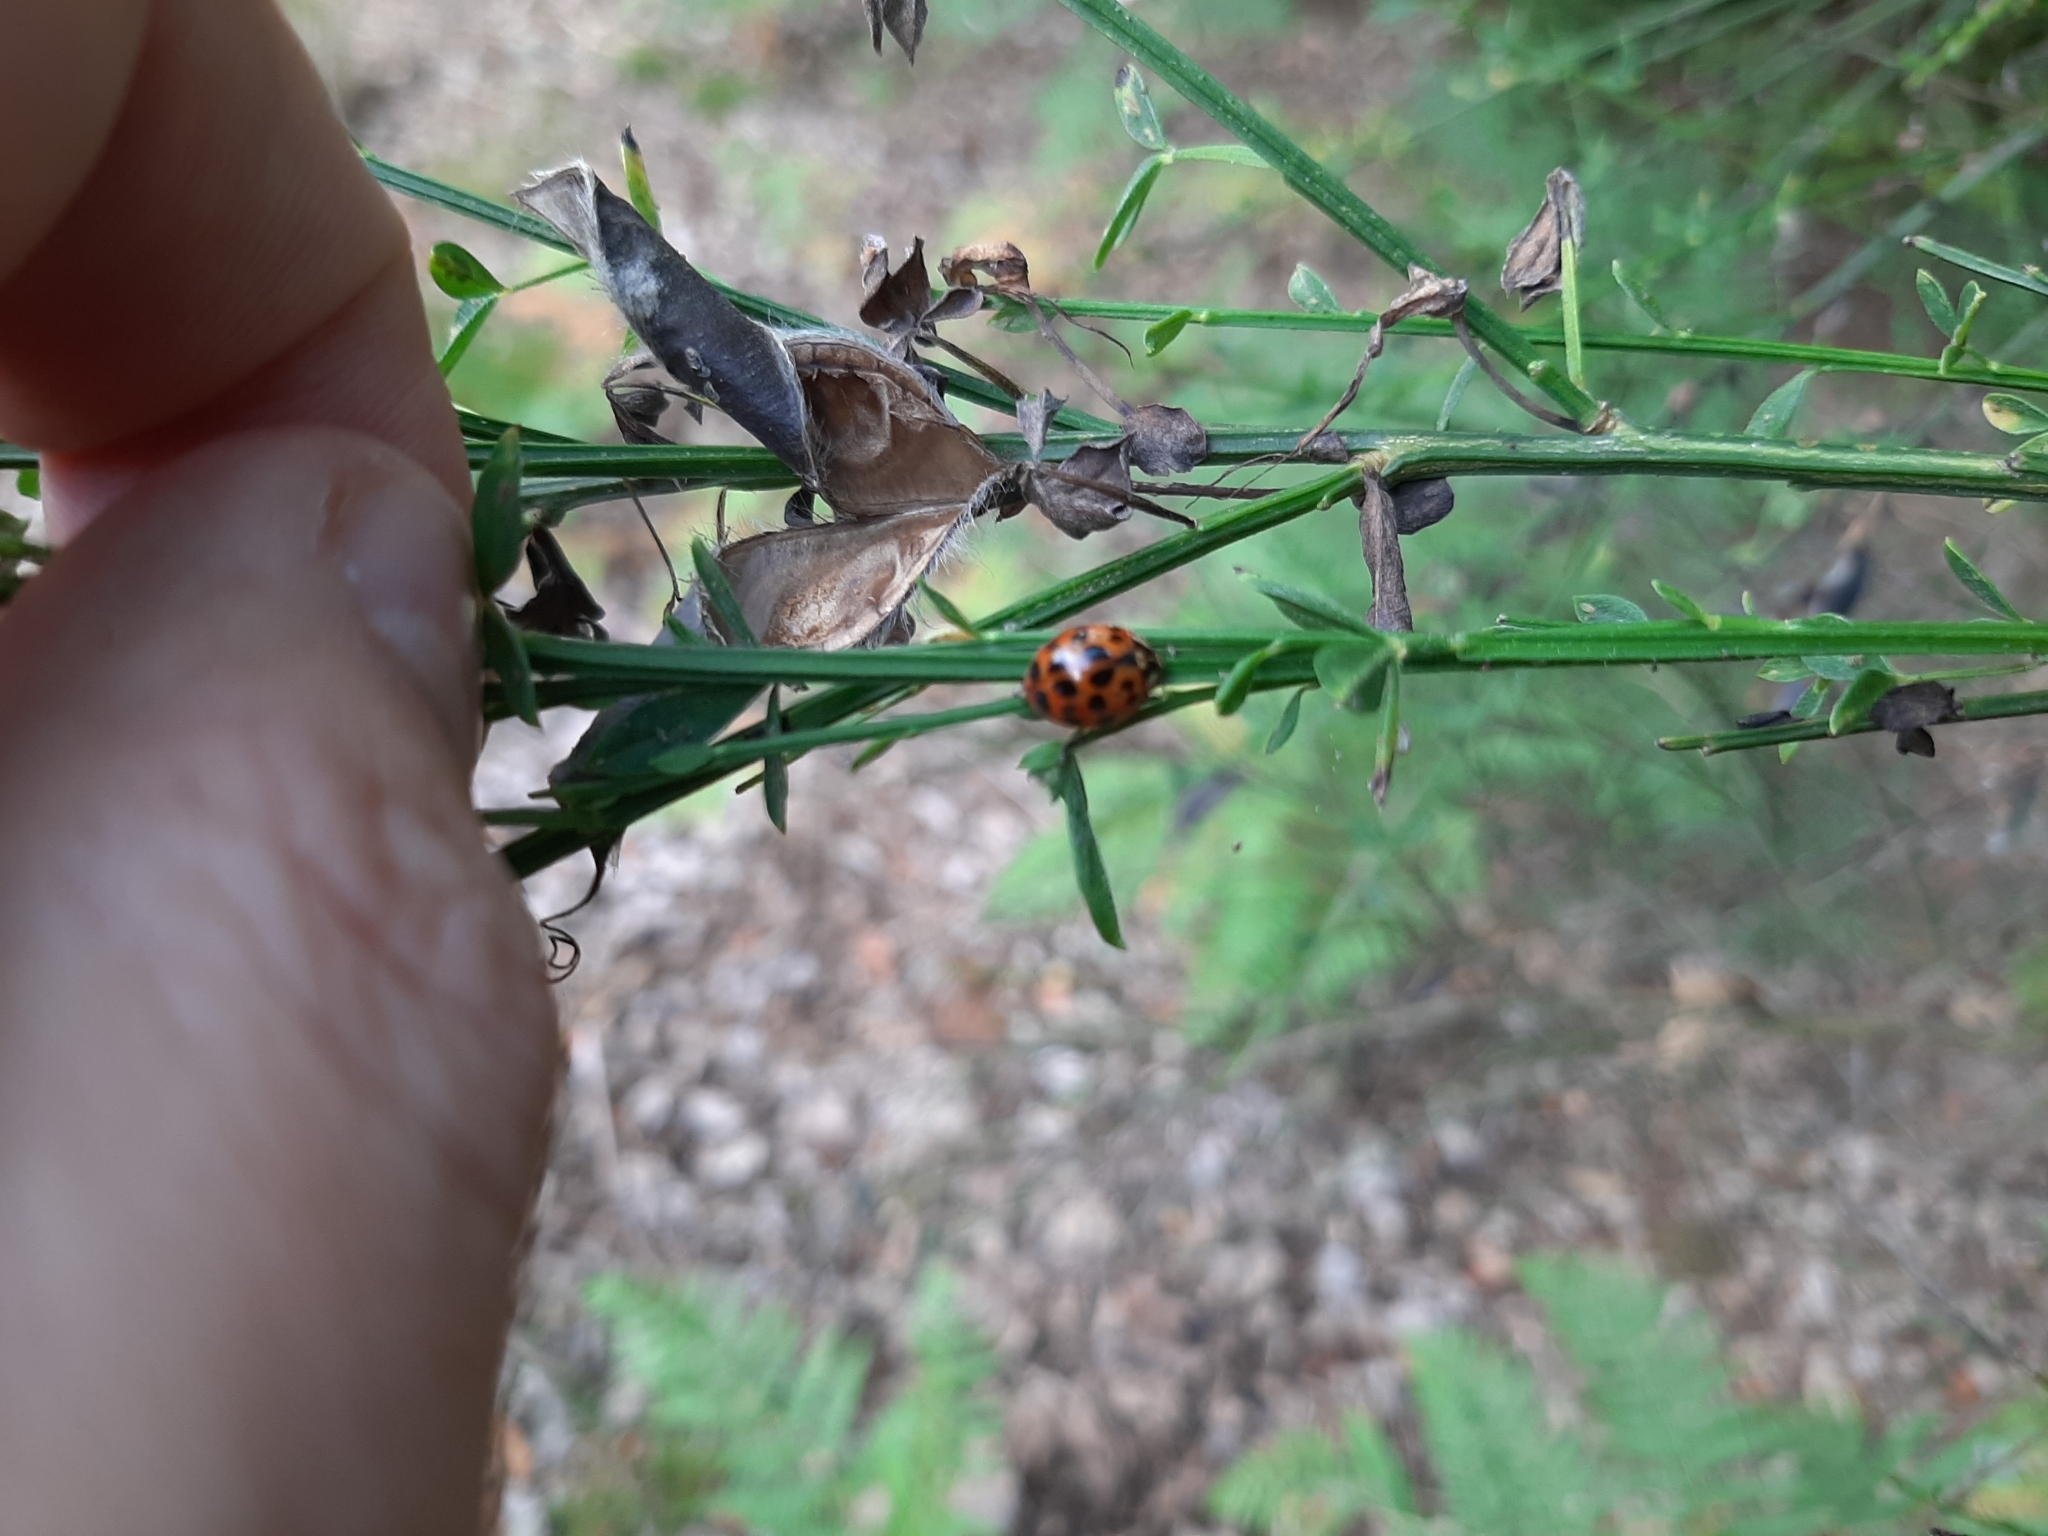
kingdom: Animalia
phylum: Arthropoda
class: Insecta
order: Coleoptera
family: Coccinellidae
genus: Harmonia
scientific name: Harmonia axyridis
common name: Harlequin ladybird
